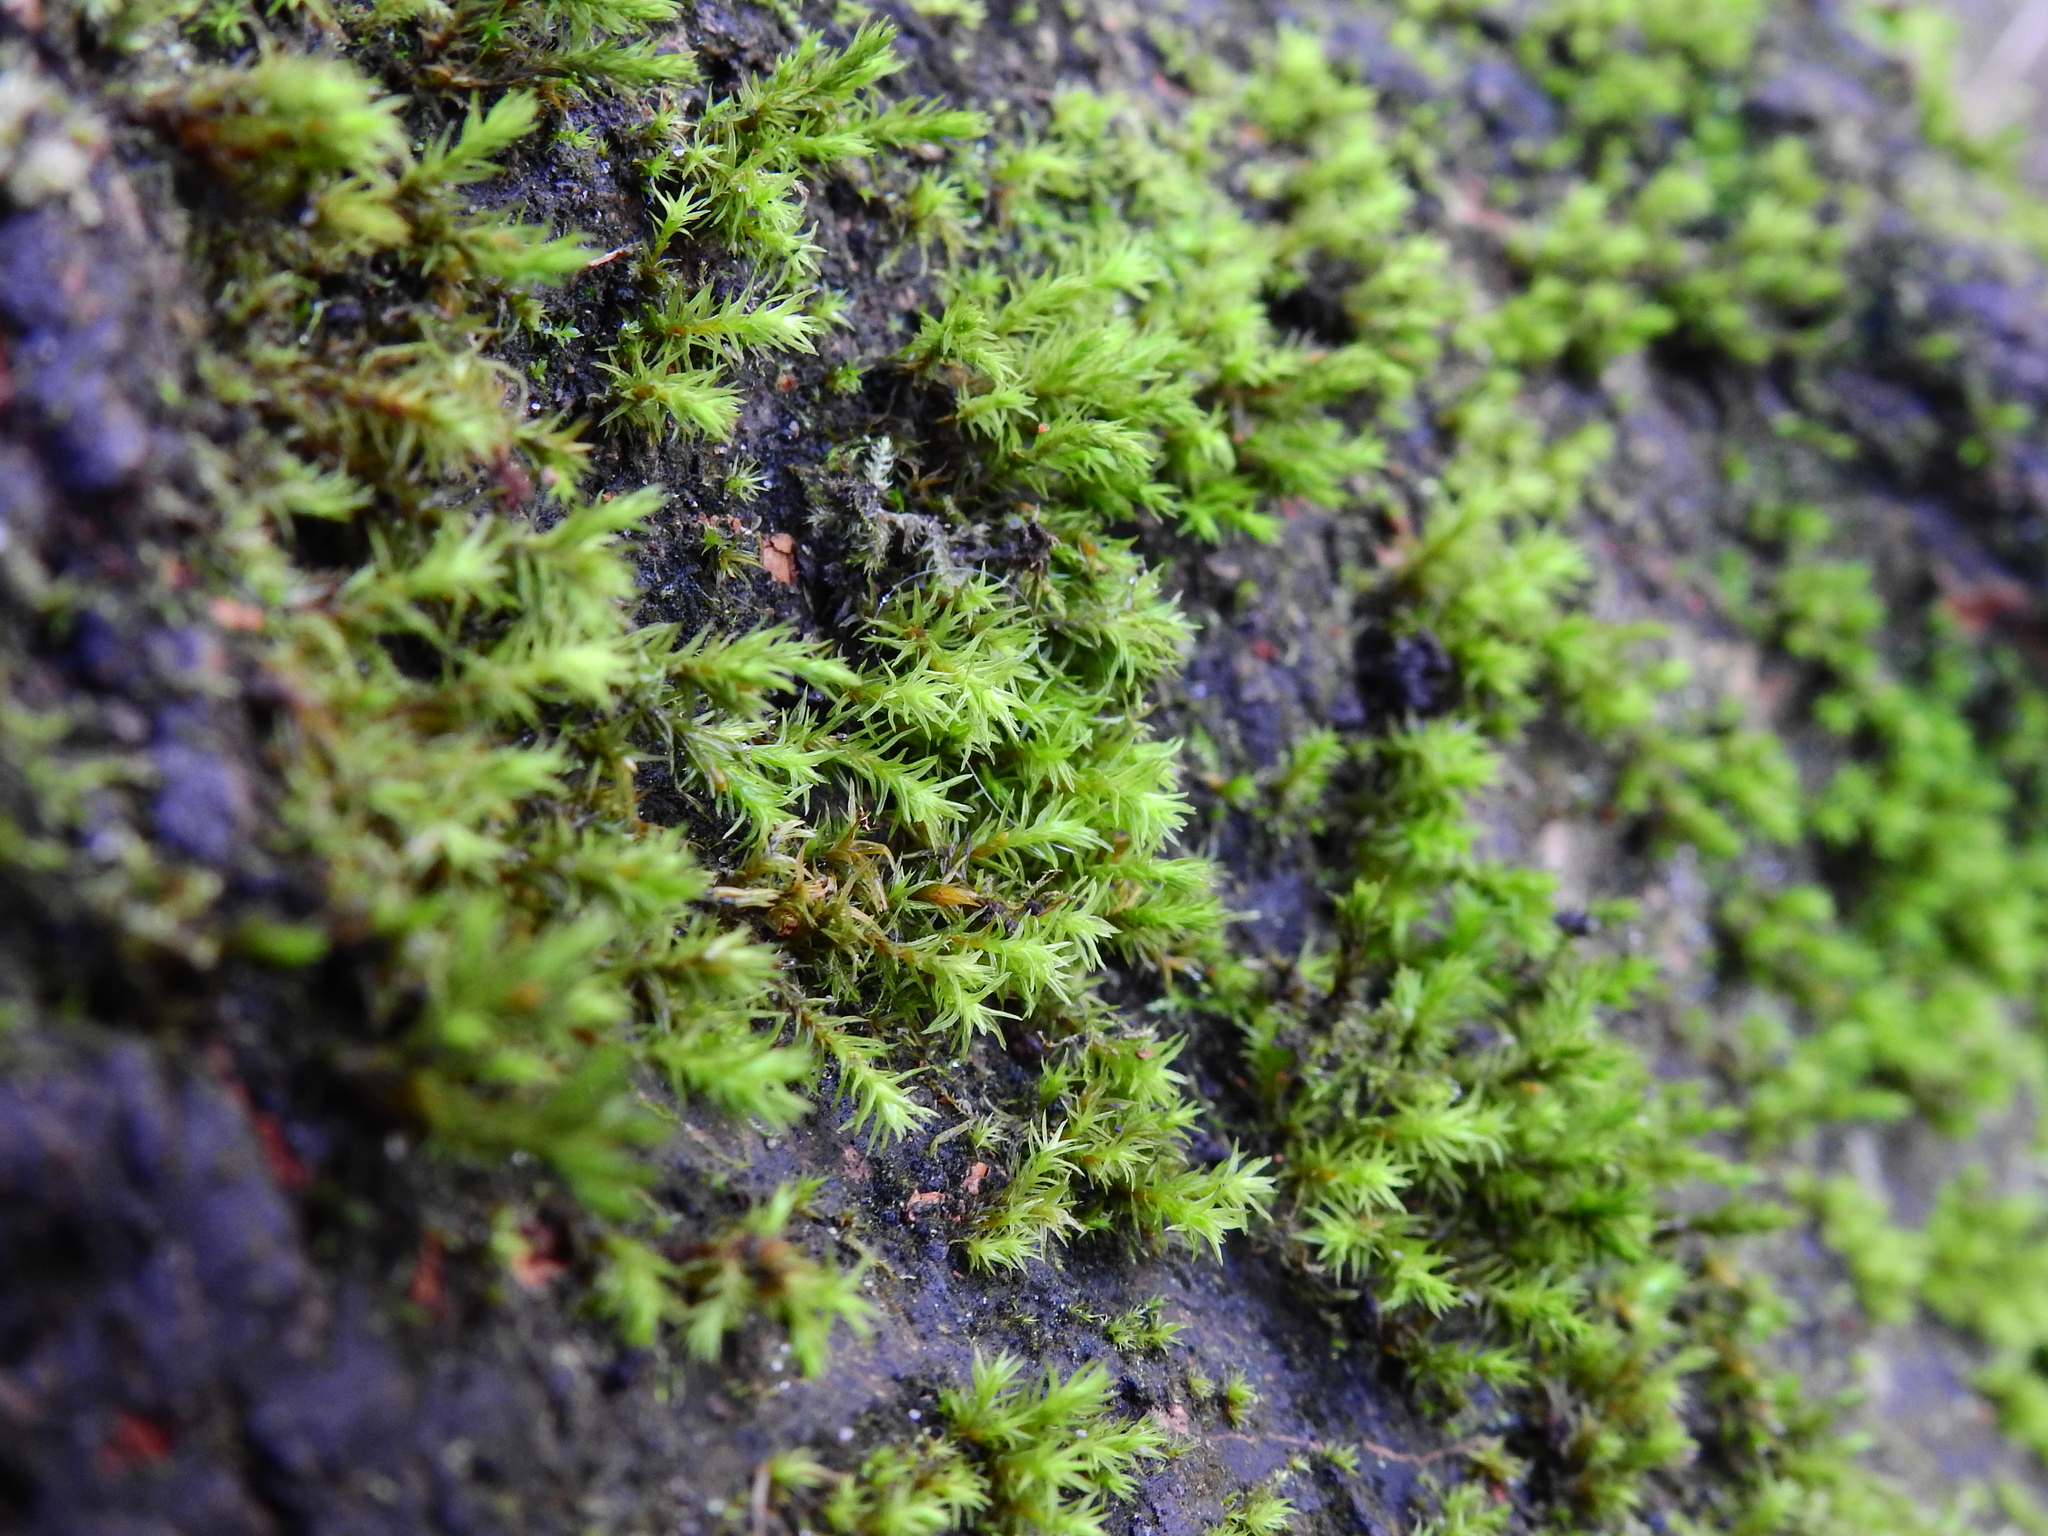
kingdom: Plantae
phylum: Bryophyta
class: Bryopsida
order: Orthotrichales
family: Orthotrichaceae
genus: Lewinskya
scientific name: Lewinskya affinis
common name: Wood bristle-moss
